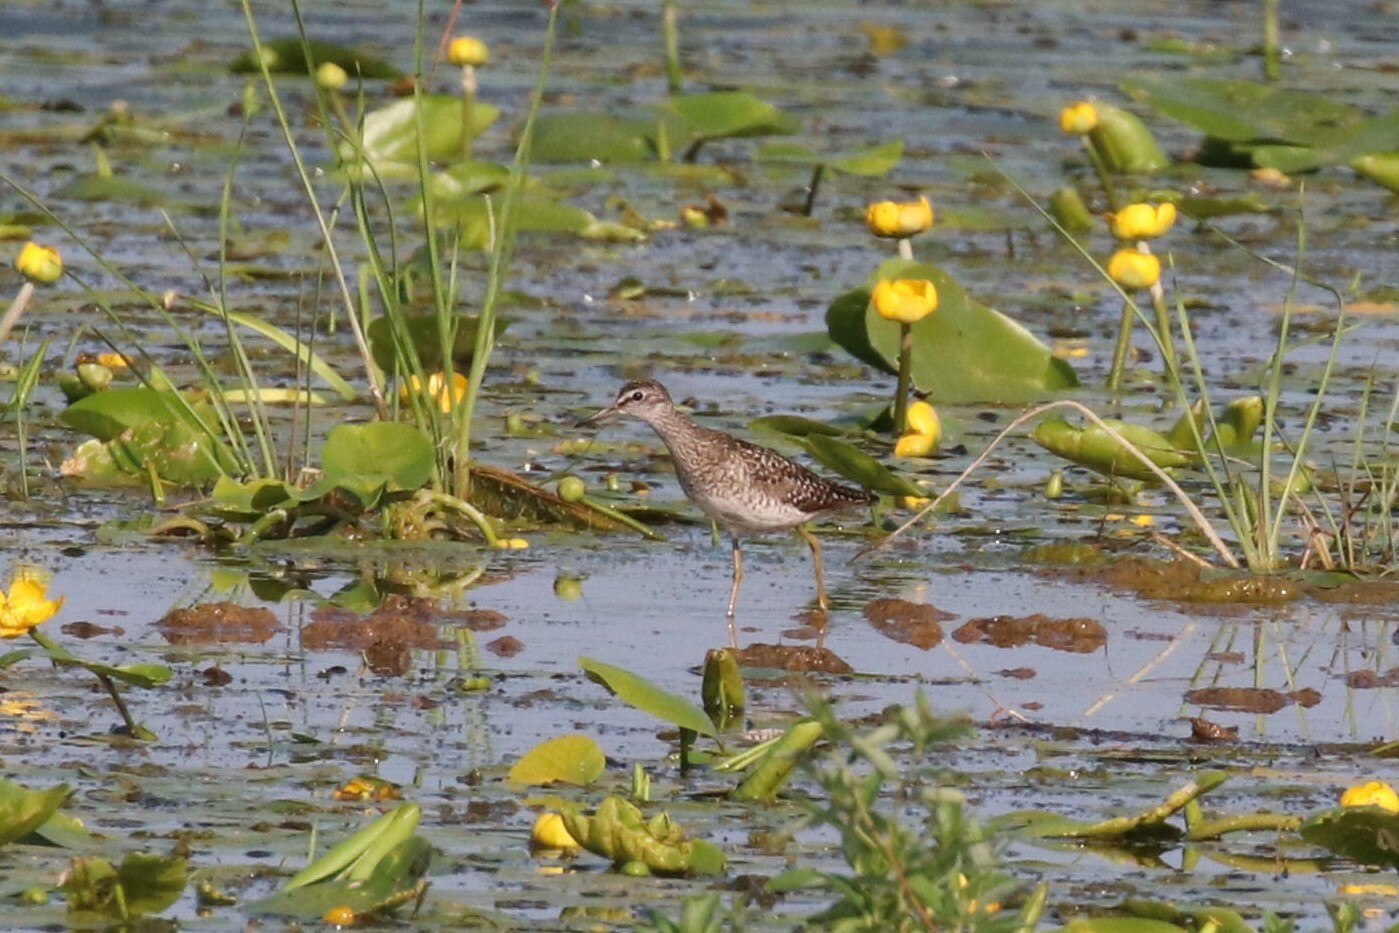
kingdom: Animalia
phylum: Chordata
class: Aves
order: Charadriiformes
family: Scolopacidae
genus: Tringa
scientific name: Tringa glareola
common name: Wood sandpiper
